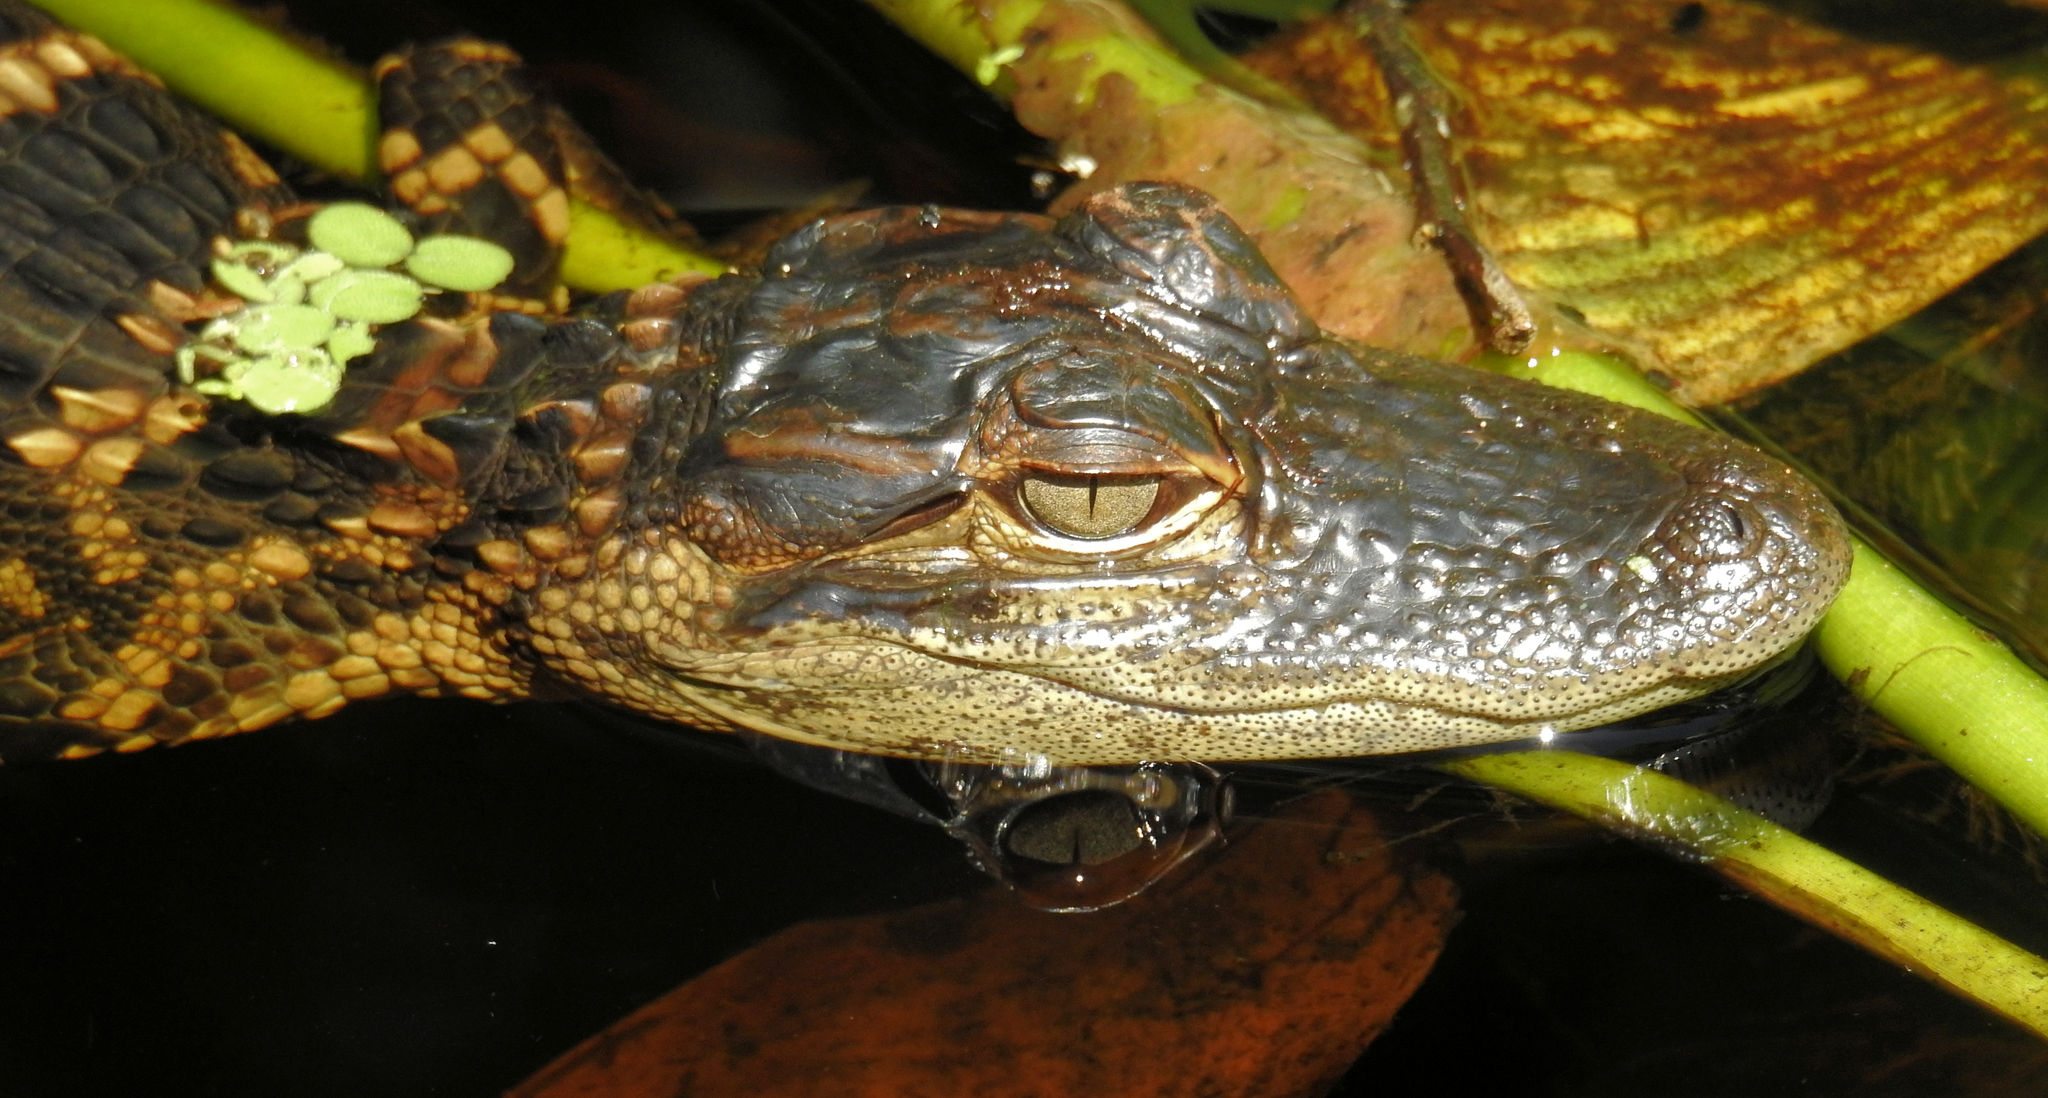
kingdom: Animalia
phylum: Chordata
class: Crocodylia
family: Alligatoridae
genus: Alligator
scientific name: Alligator mississippiensis
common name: American alligator
